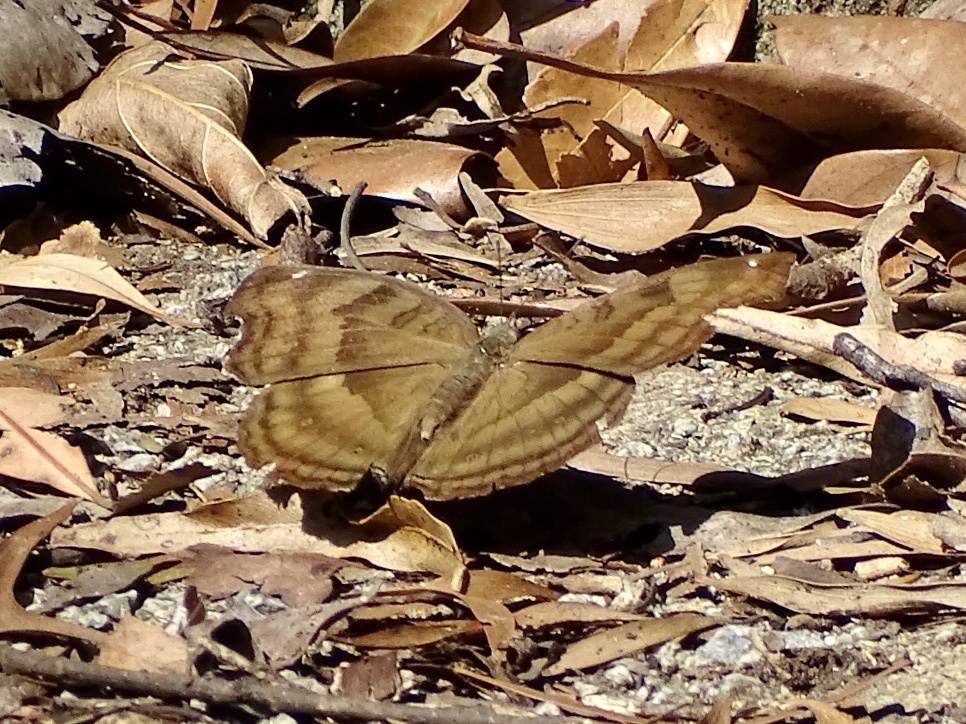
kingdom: Animalia
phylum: Arthropoda
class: Insecta
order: Lepidoptera
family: Nymphalidae
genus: Junonia
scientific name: Junonia iphita
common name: Chocolate pansy
